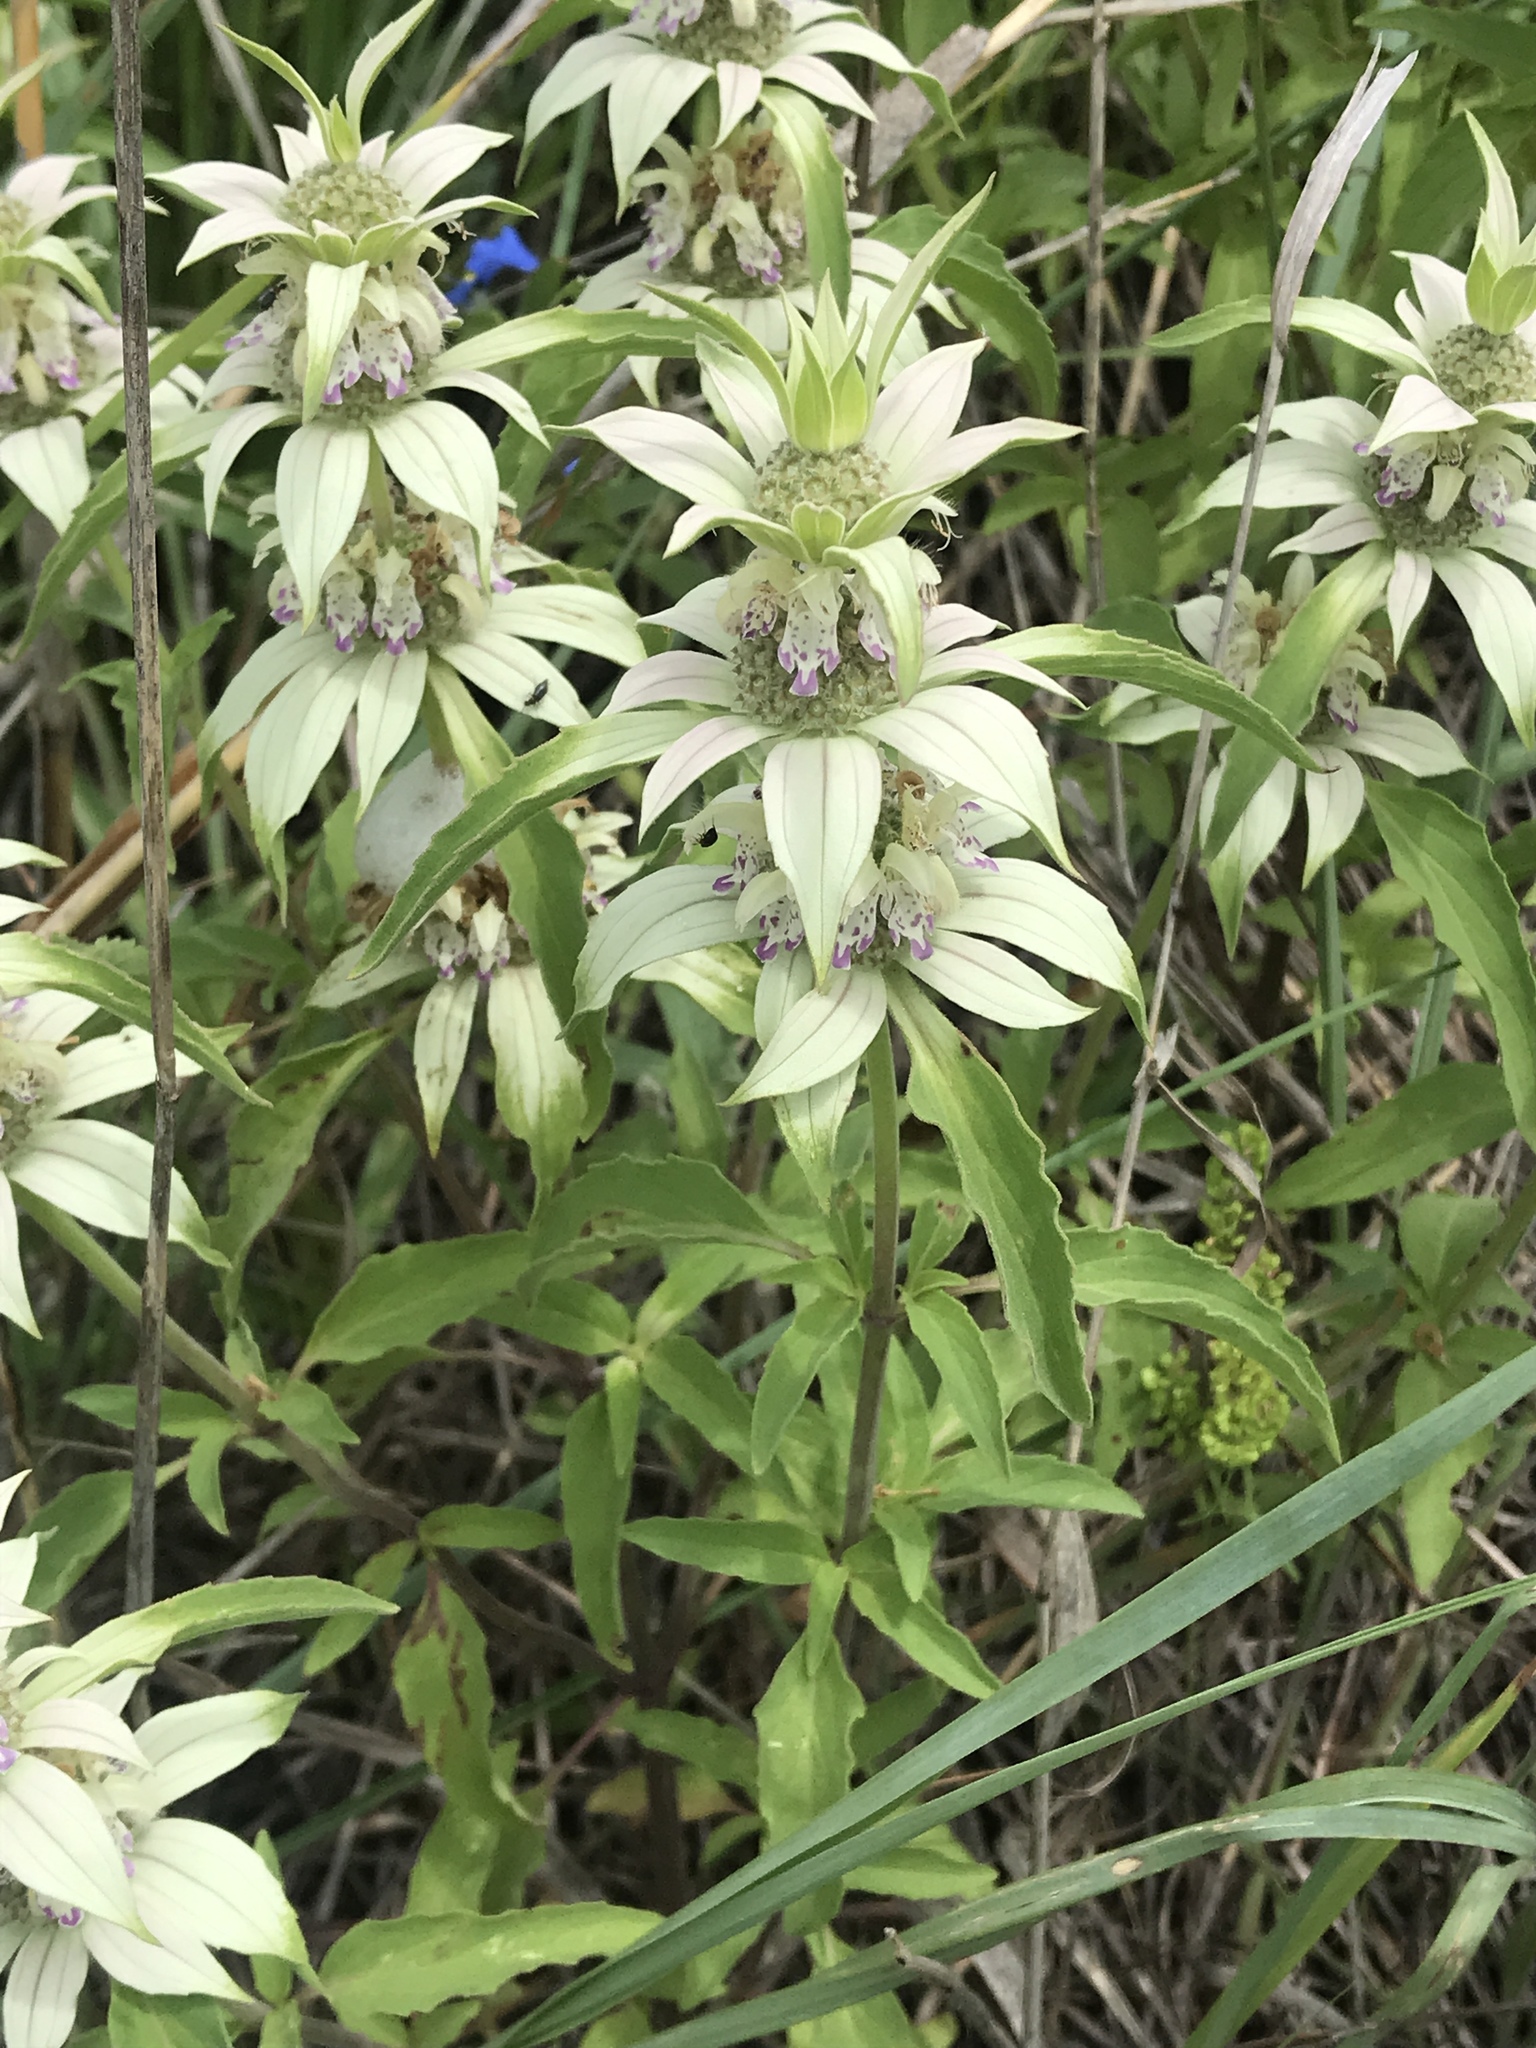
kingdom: Plantae
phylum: Tracheophyta
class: Magnoliopsida
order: Lamiales
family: Lamiaceae
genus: Monarda
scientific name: Monarda punctata
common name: Dotted monarda
